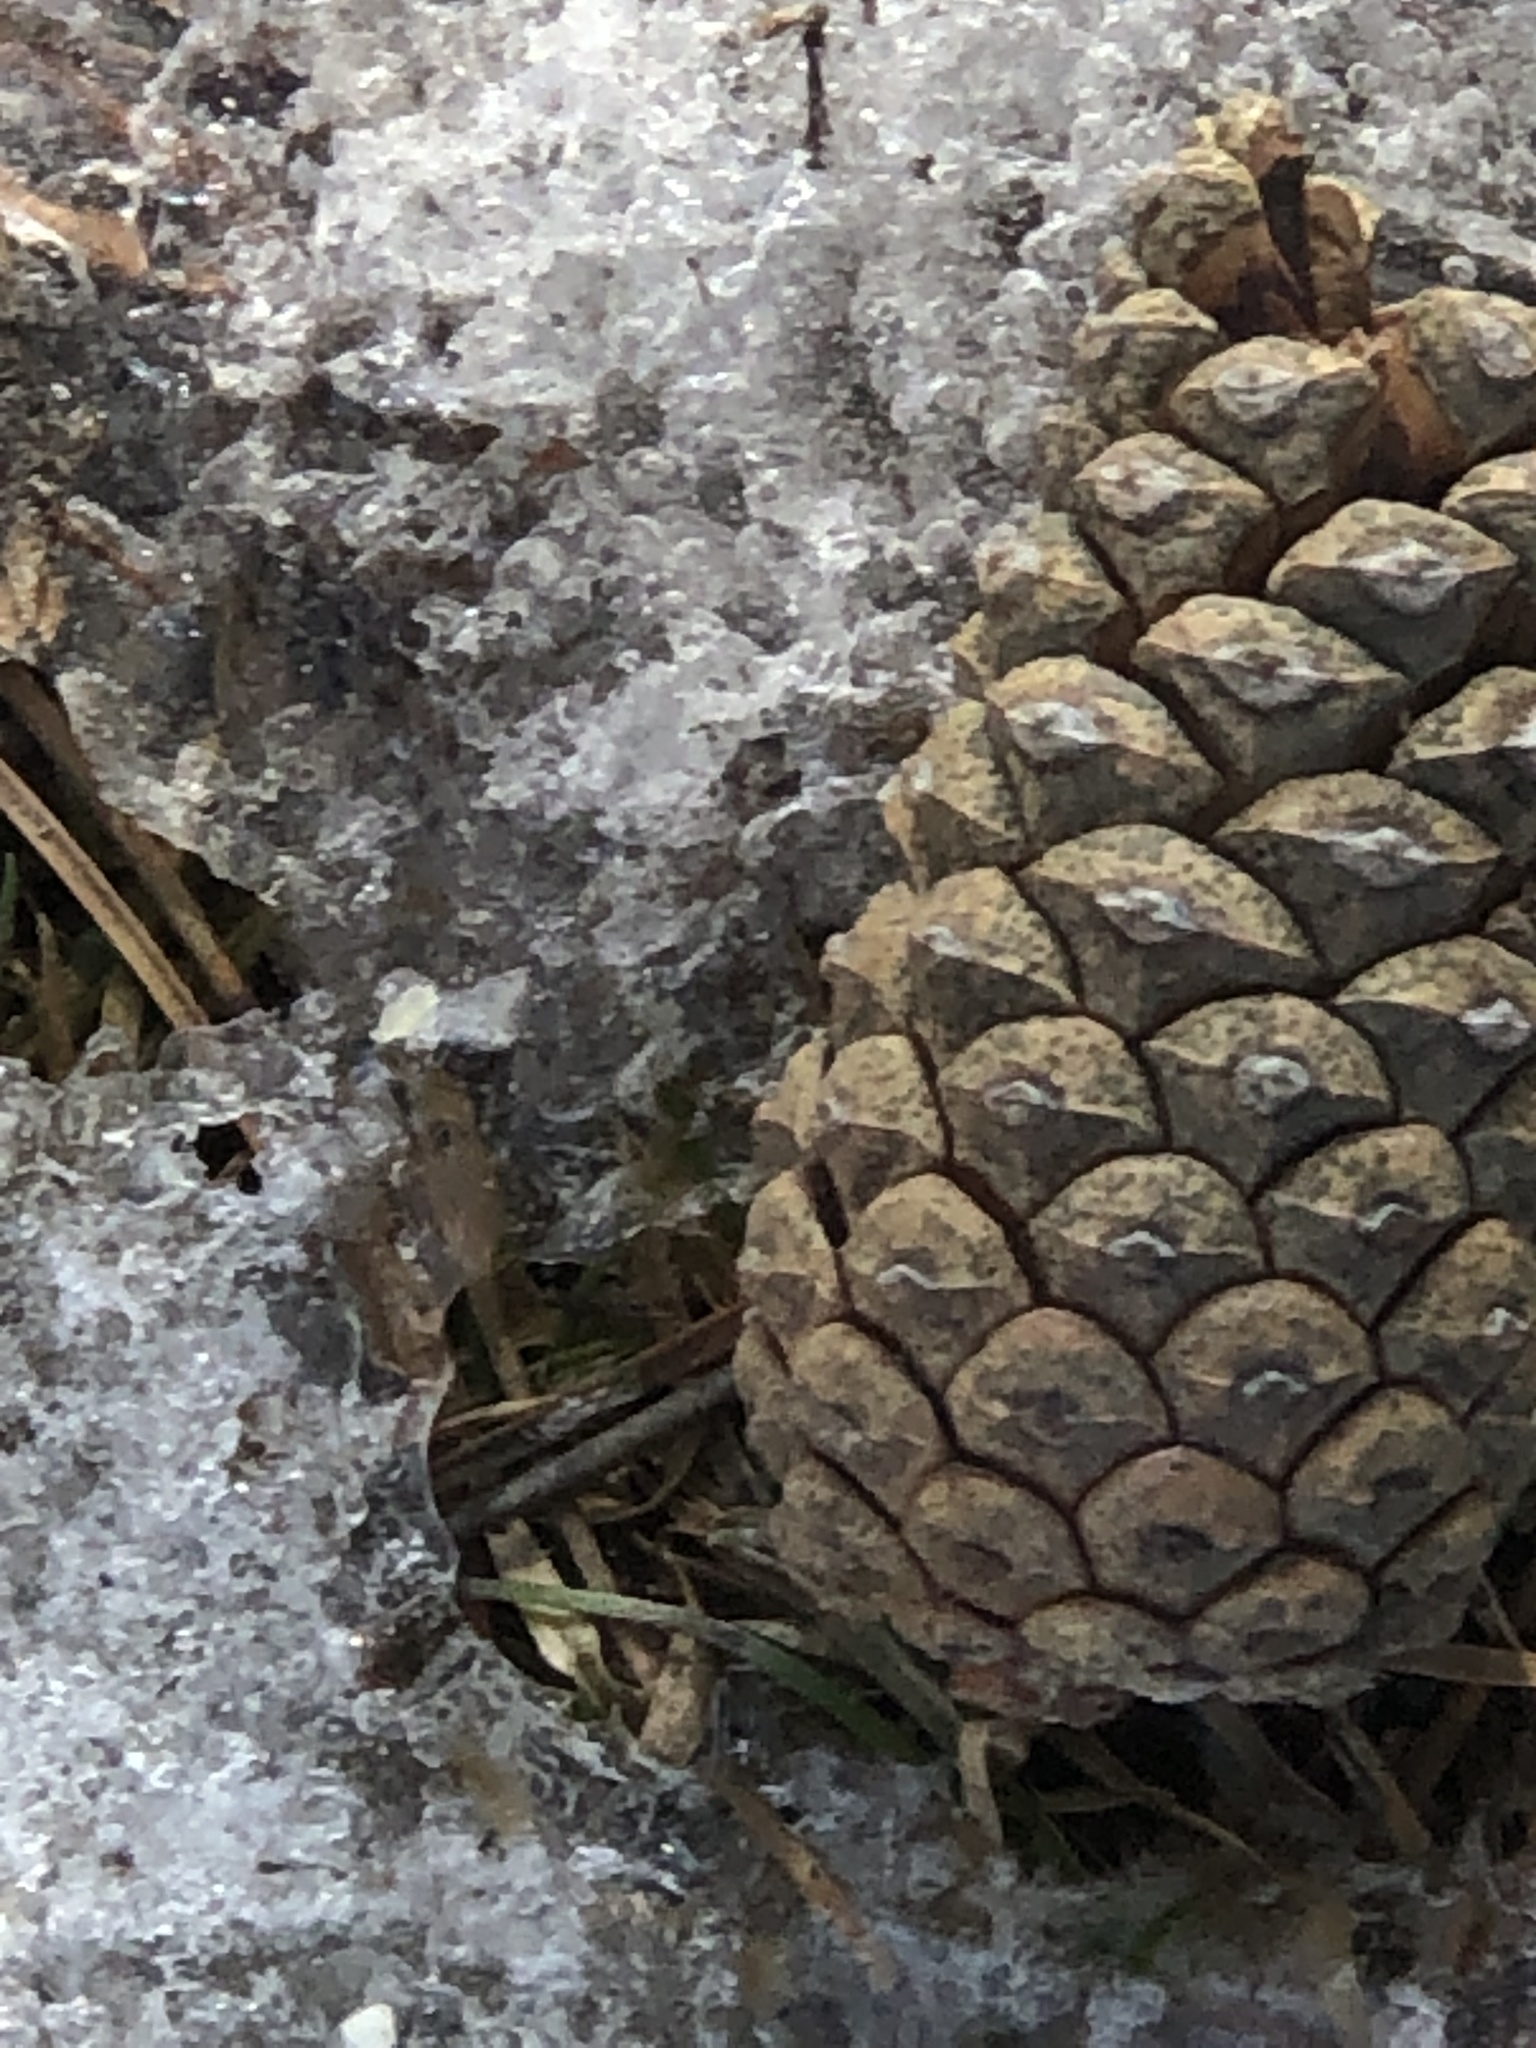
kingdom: Plantae
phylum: Tracheophyta
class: Pinopsida
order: Pinales
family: Pinaceae
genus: Pinus
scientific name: Pinus nigra
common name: Austrian pine
